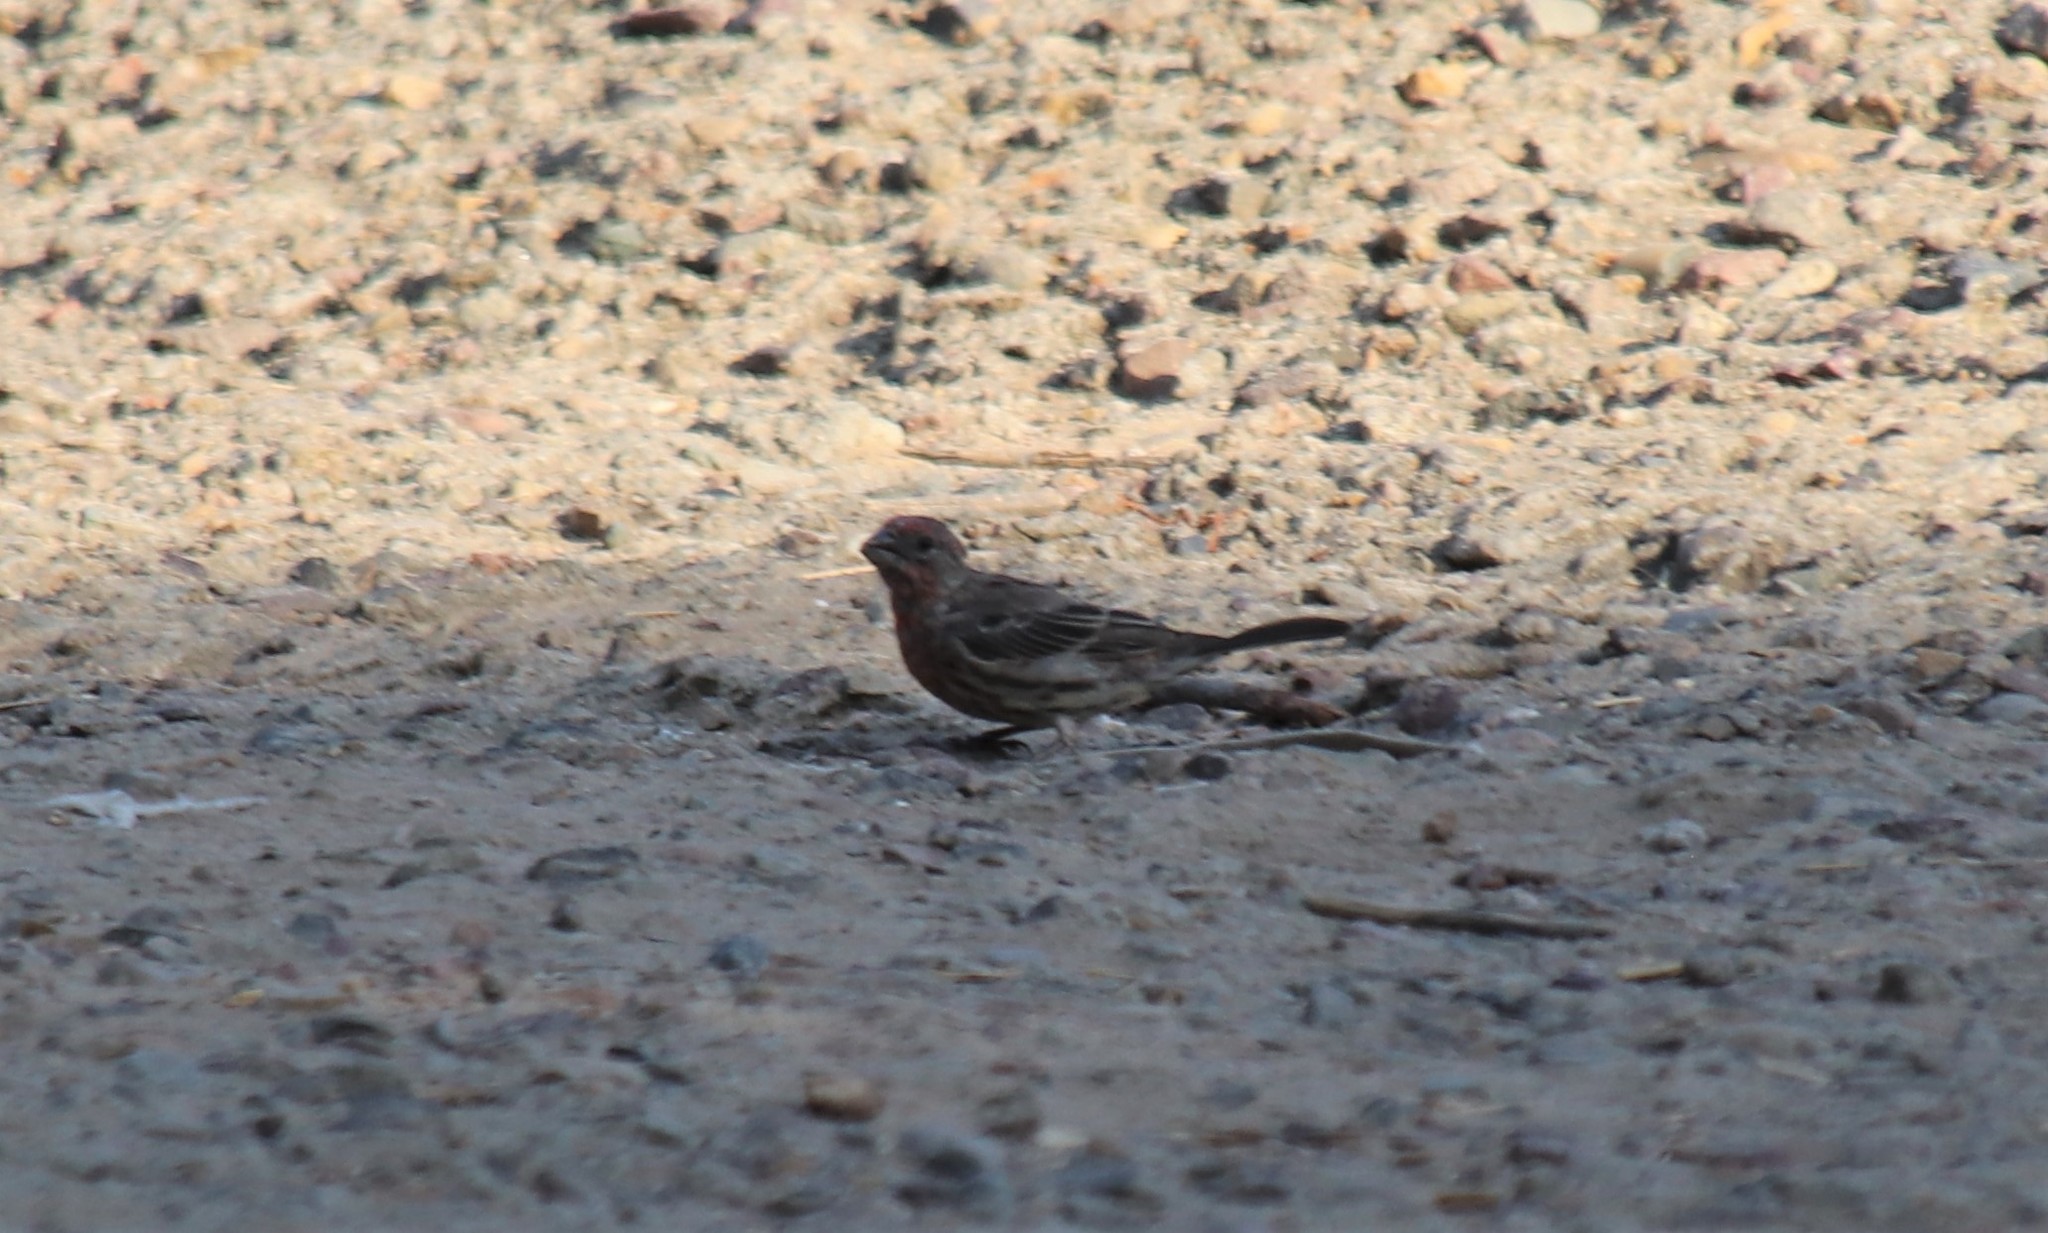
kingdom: Animalia
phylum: Chordata
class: Aves
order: Passeriformes
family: Fringillidae
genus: Haemorhous
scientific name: Haemorhous mexicanus
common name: House finch
